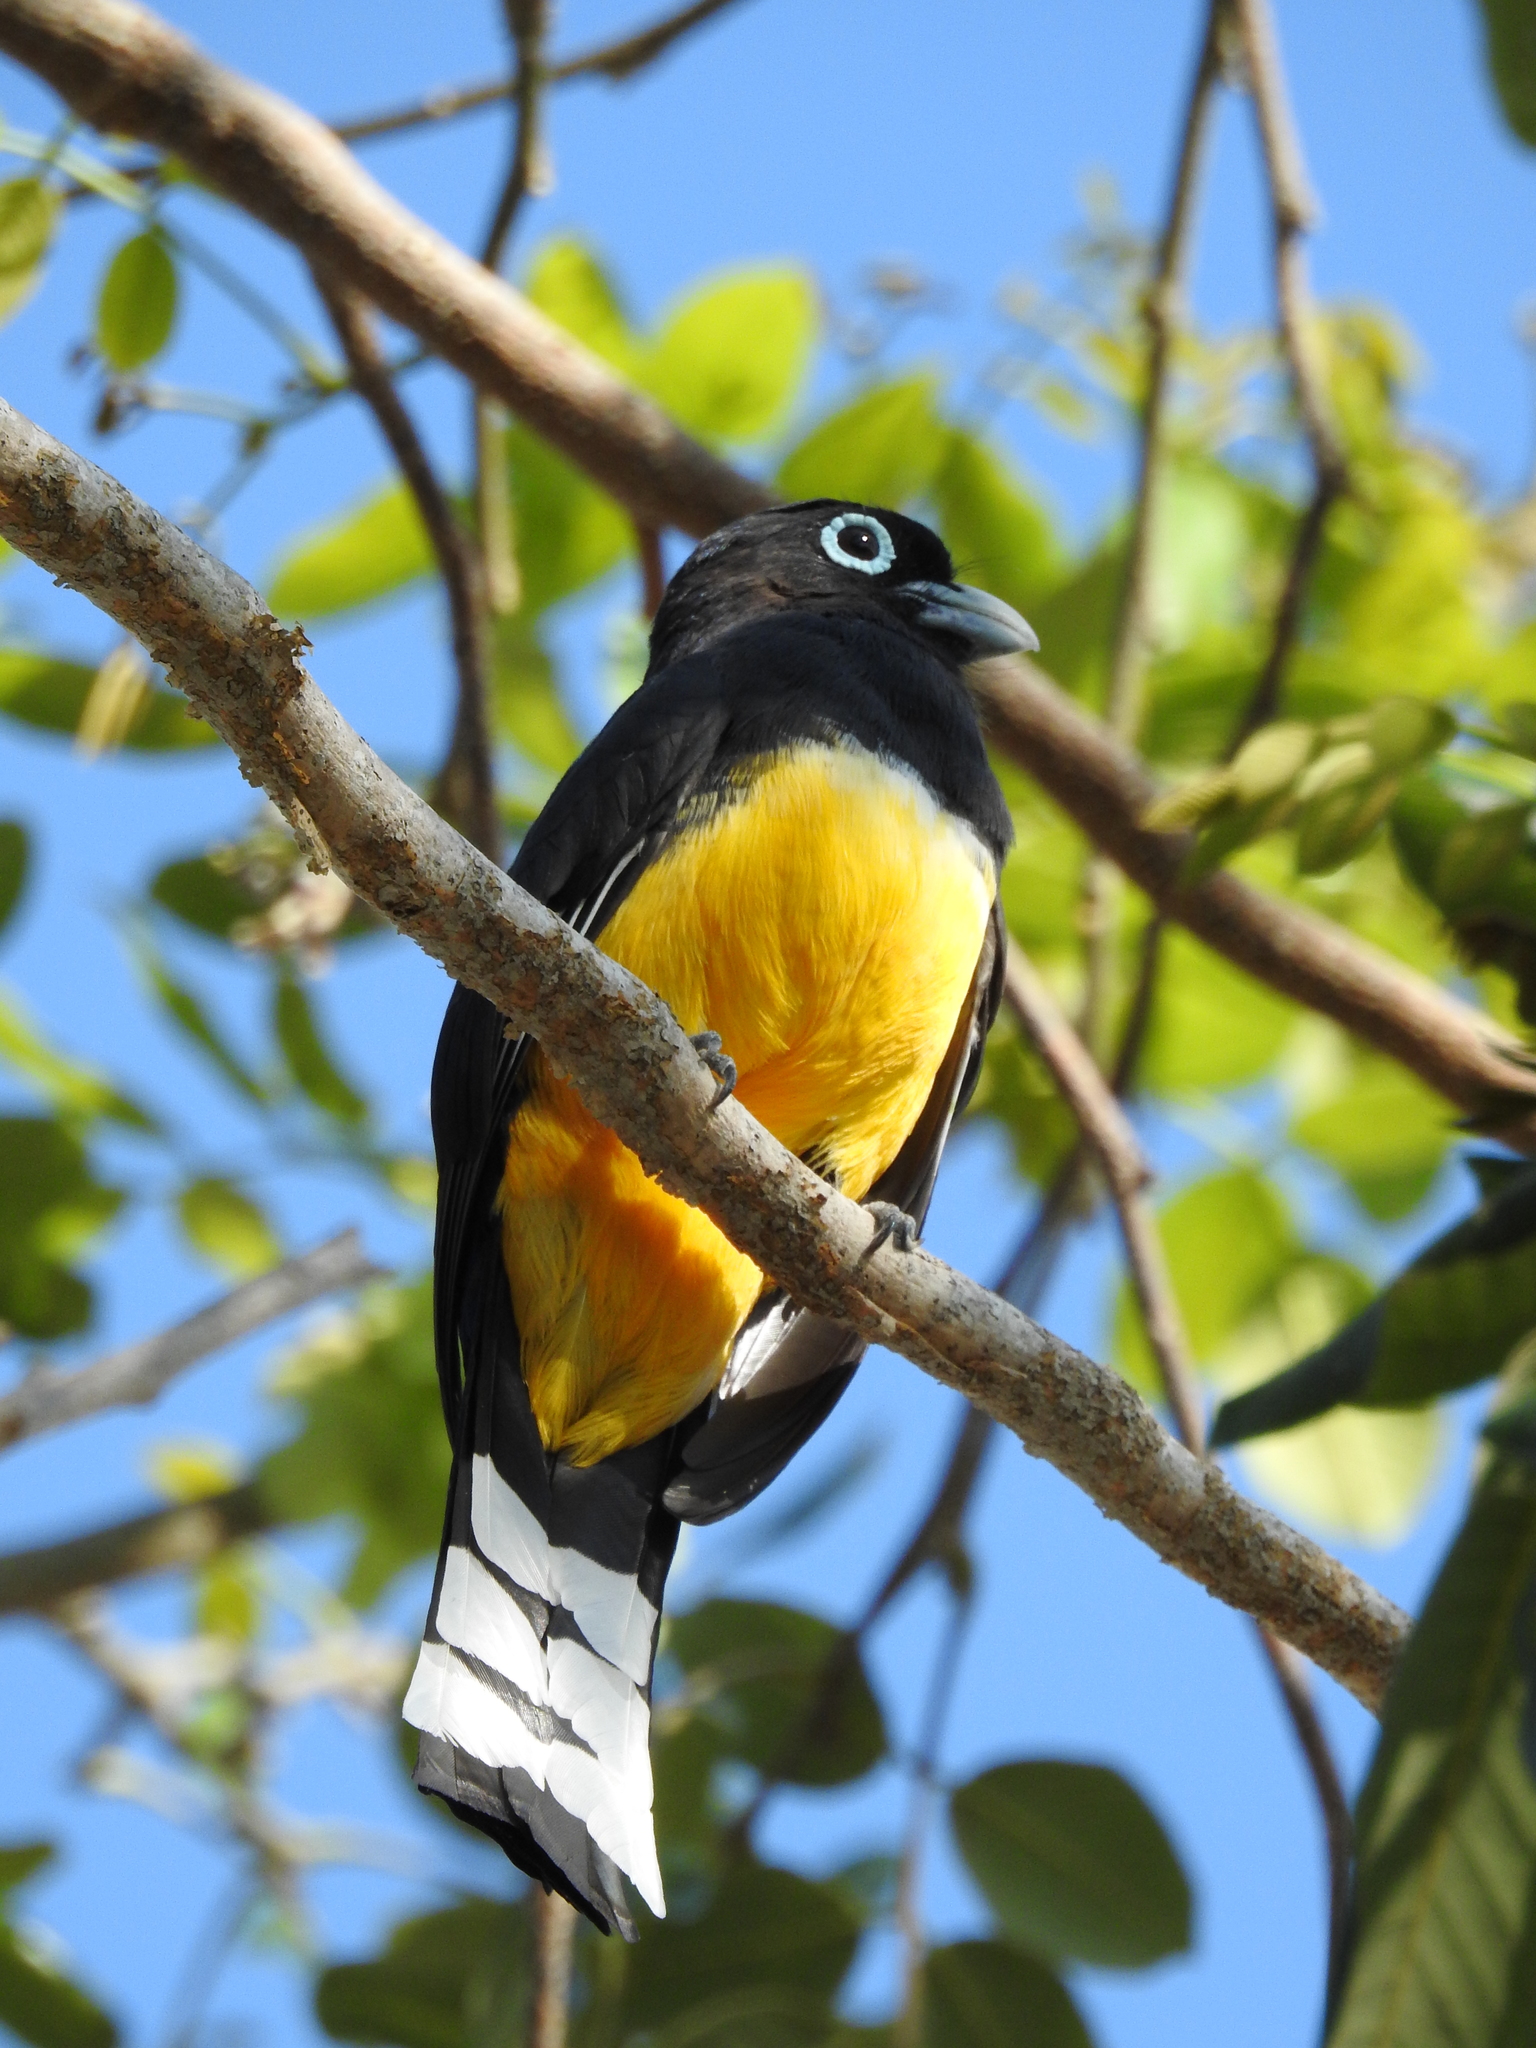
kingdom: Animalia
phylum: Chordata
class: Aves
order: Trogoniformes
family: Trogonidae
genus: Trogon
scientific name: Trogon melanocephalus
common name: Black-headed trogon
